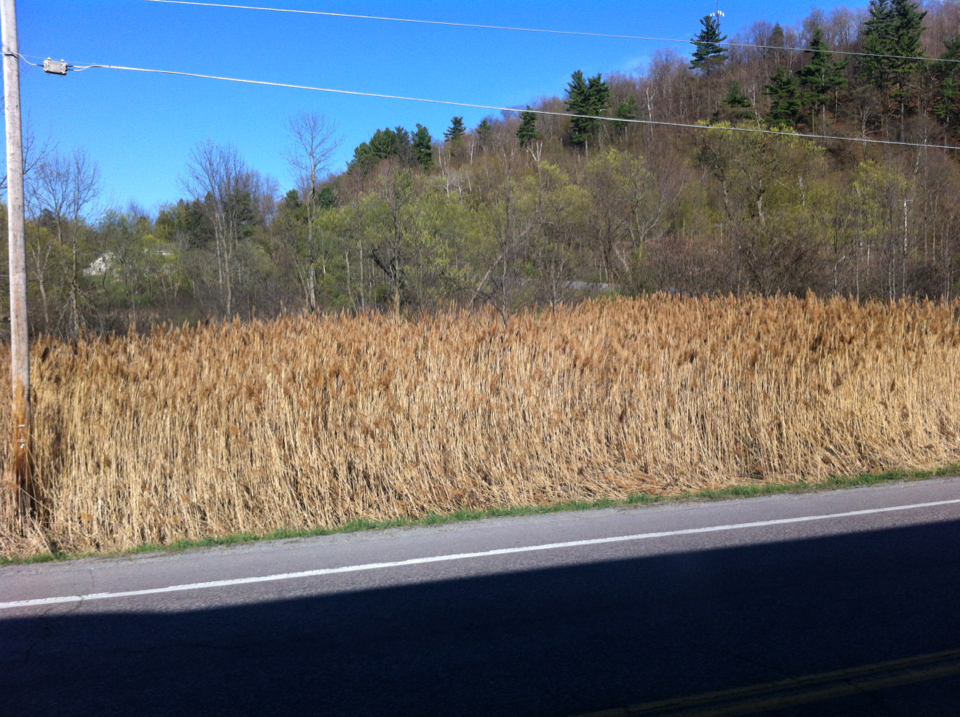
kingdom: Plantae
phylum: Tracheophyta
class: Liliopsida
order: Poales
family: Poaceae
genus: Phragmites
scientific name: Phragmites australis
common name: Common reed
